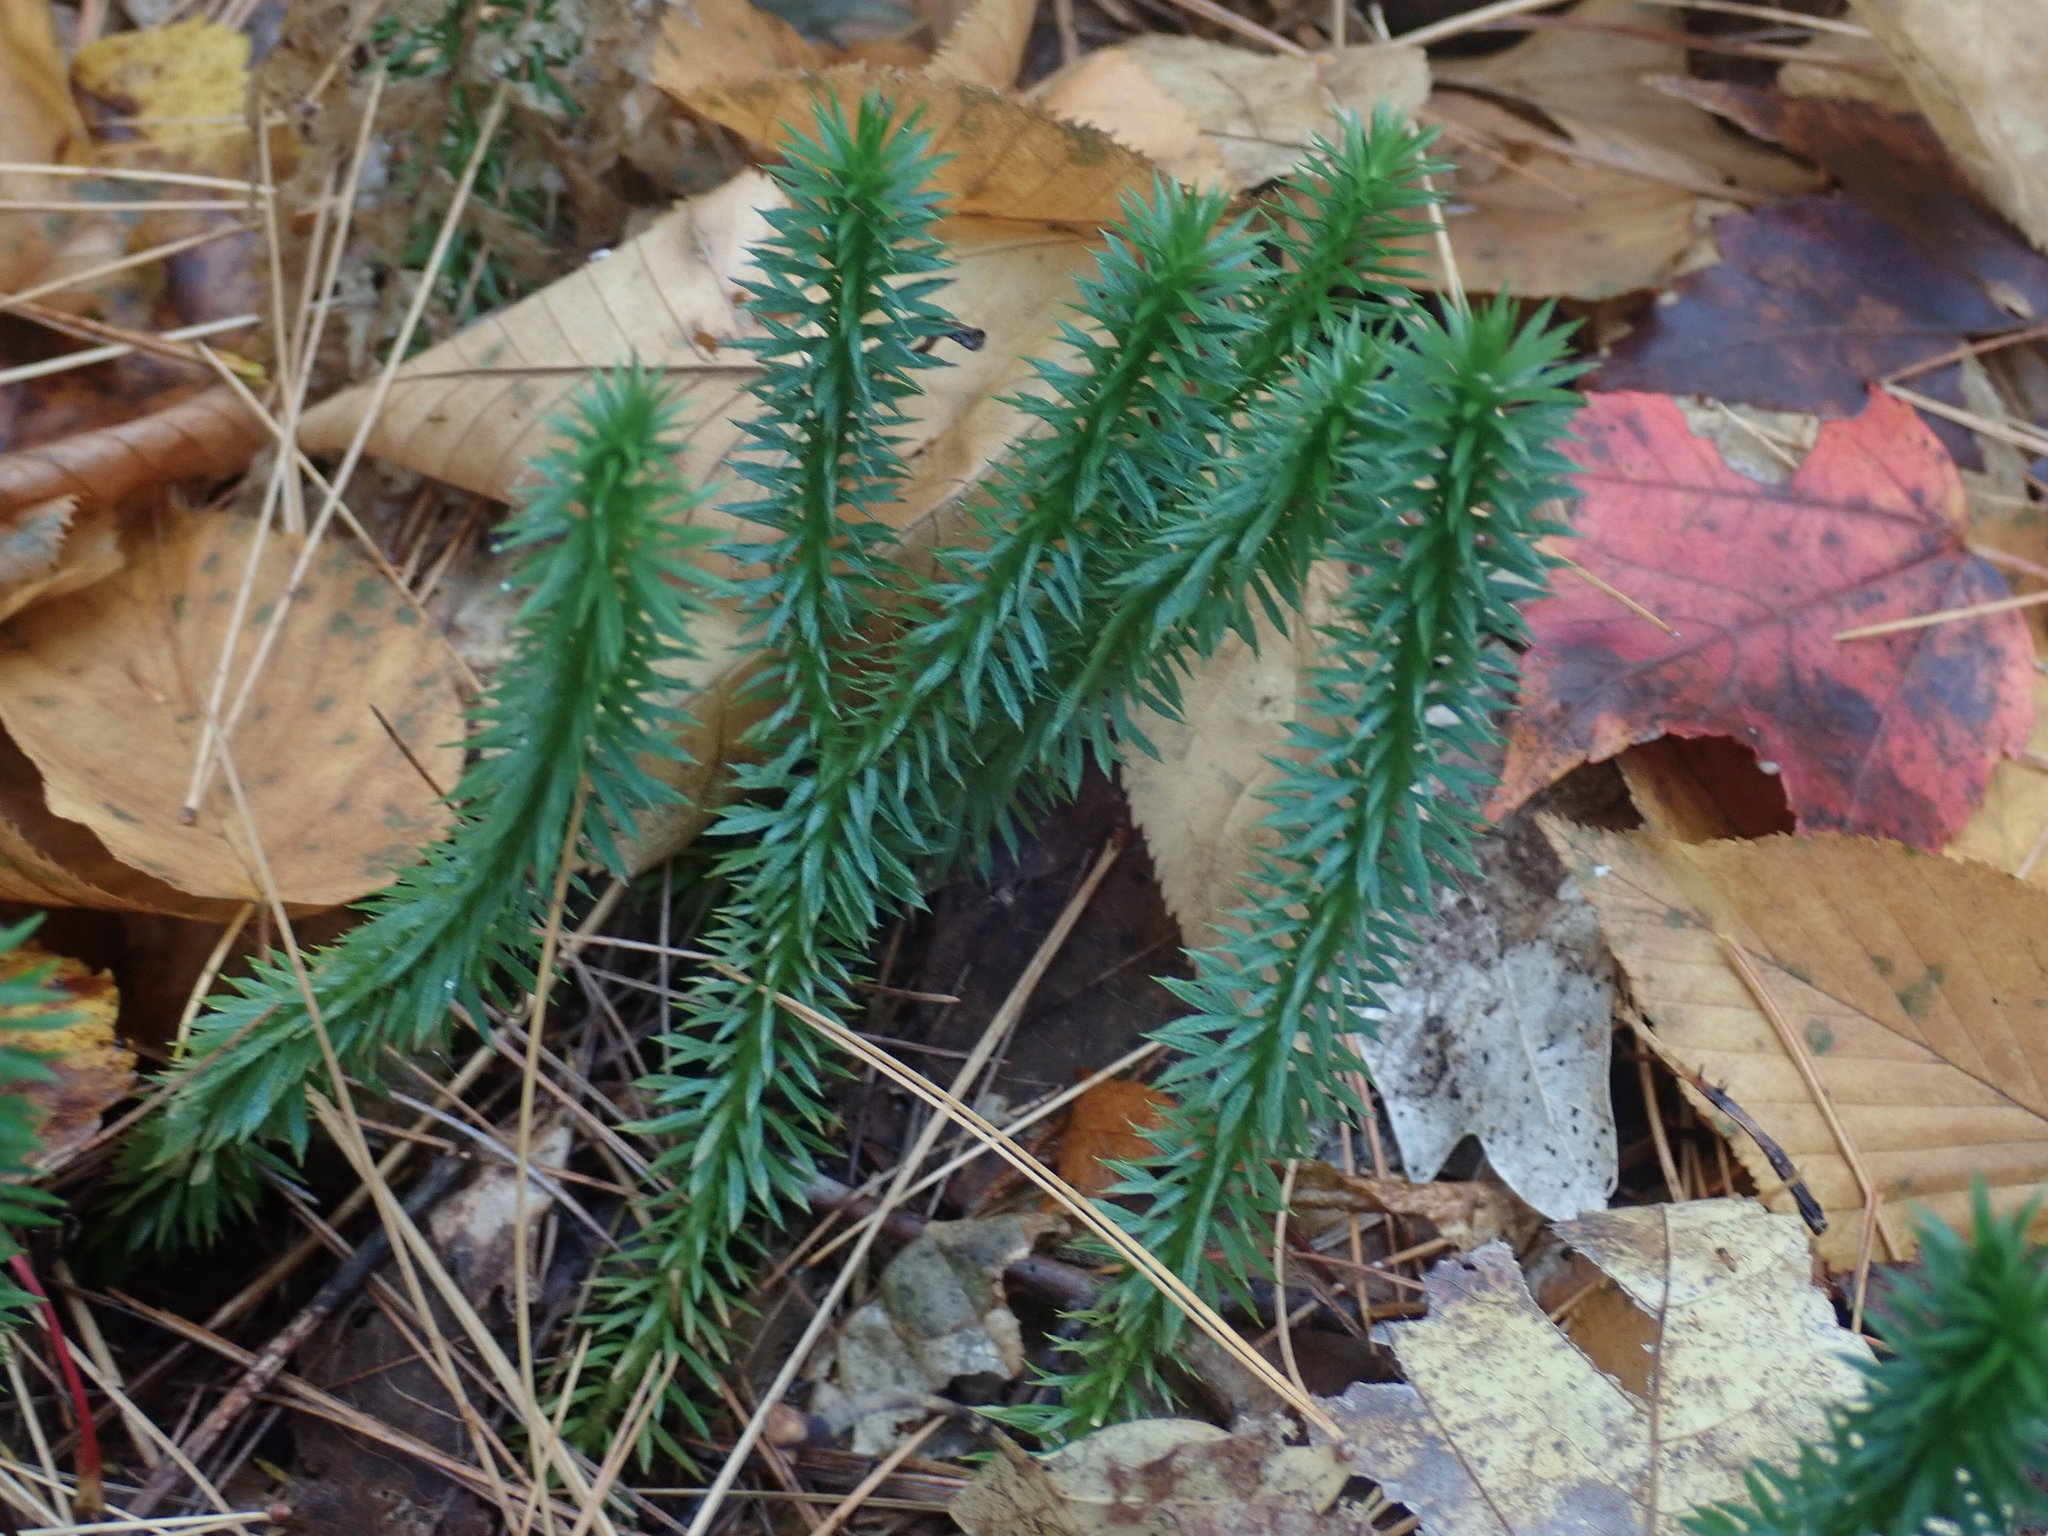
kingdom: Plantae
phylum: Tracheophyta
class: Lycopodiopsida
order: Lycopodiales
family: Lycopodiaceae
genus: Huperzia
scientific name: Huperzia lucidula
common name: Shining clubmoss
